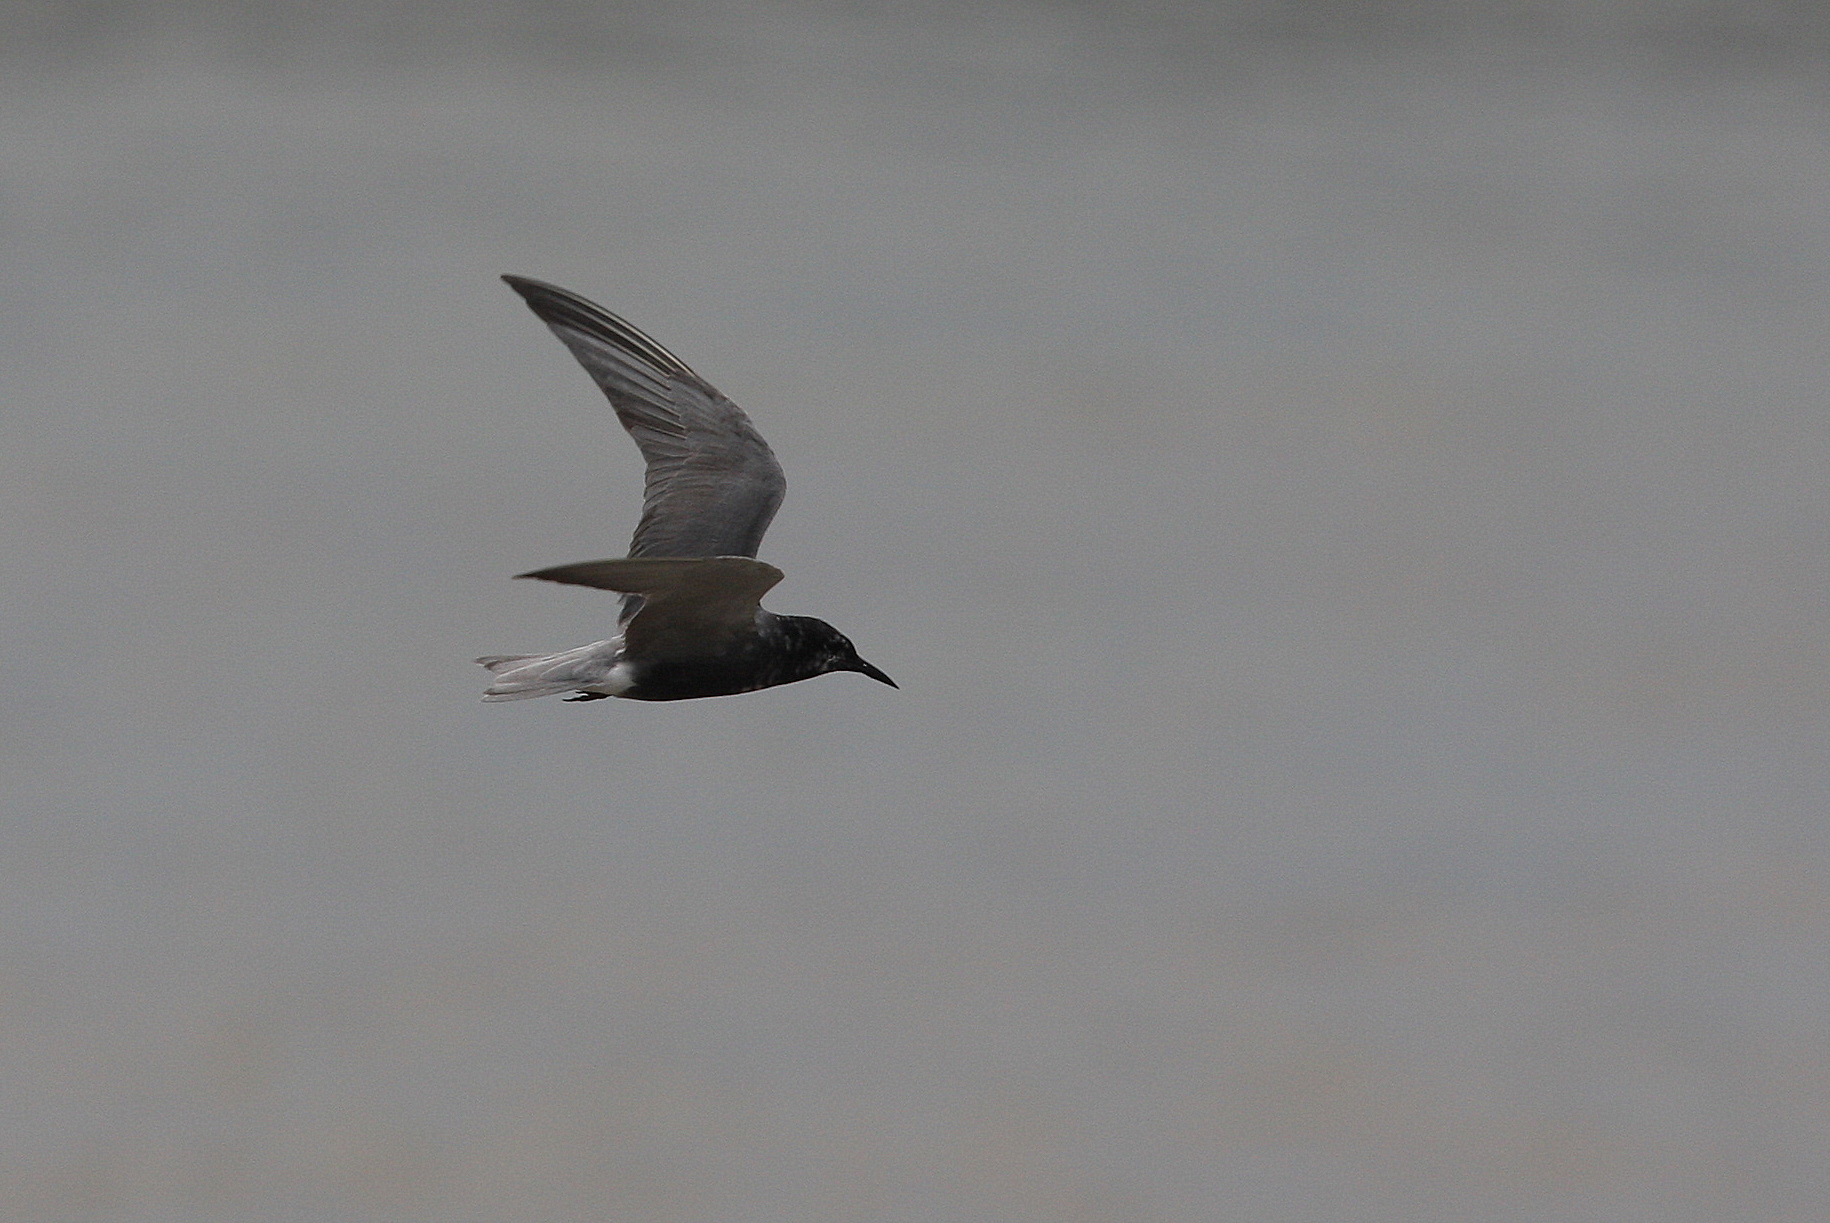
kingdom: Animalia
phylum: Chordata
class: Aves
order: Charadriiformes
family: Laridae
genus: Chlidonias
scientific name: Chlidonias niger
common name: Black tern
